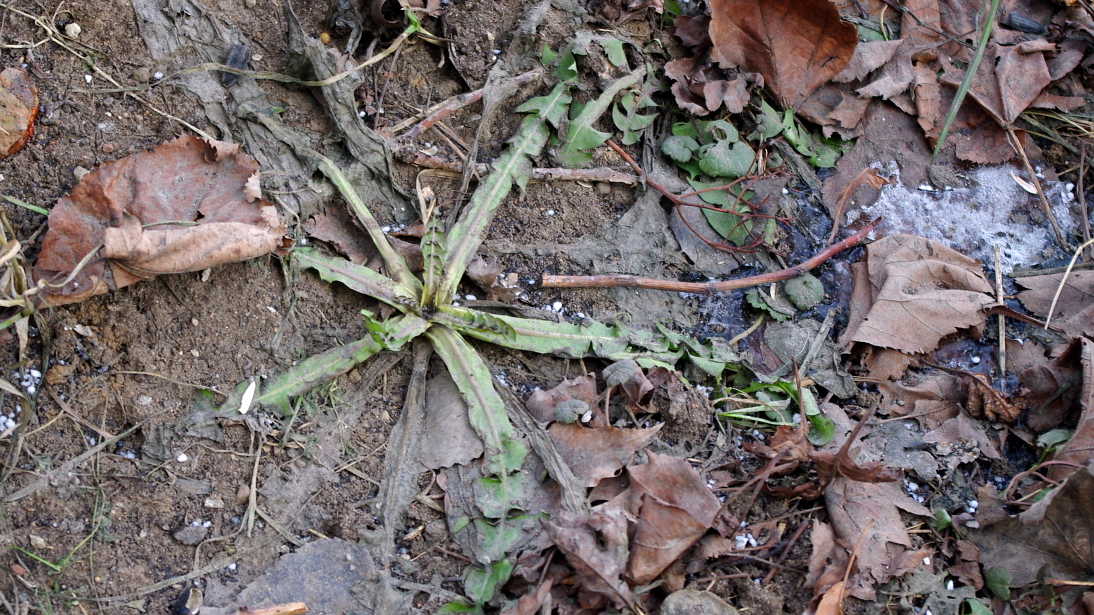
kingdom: Plantae
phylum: Tracheophyta
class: Magnoliopsida
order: Asterales
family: Asteraceae
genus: Taraxacum
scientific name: Taraxacum officinale
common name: Common dandelion
